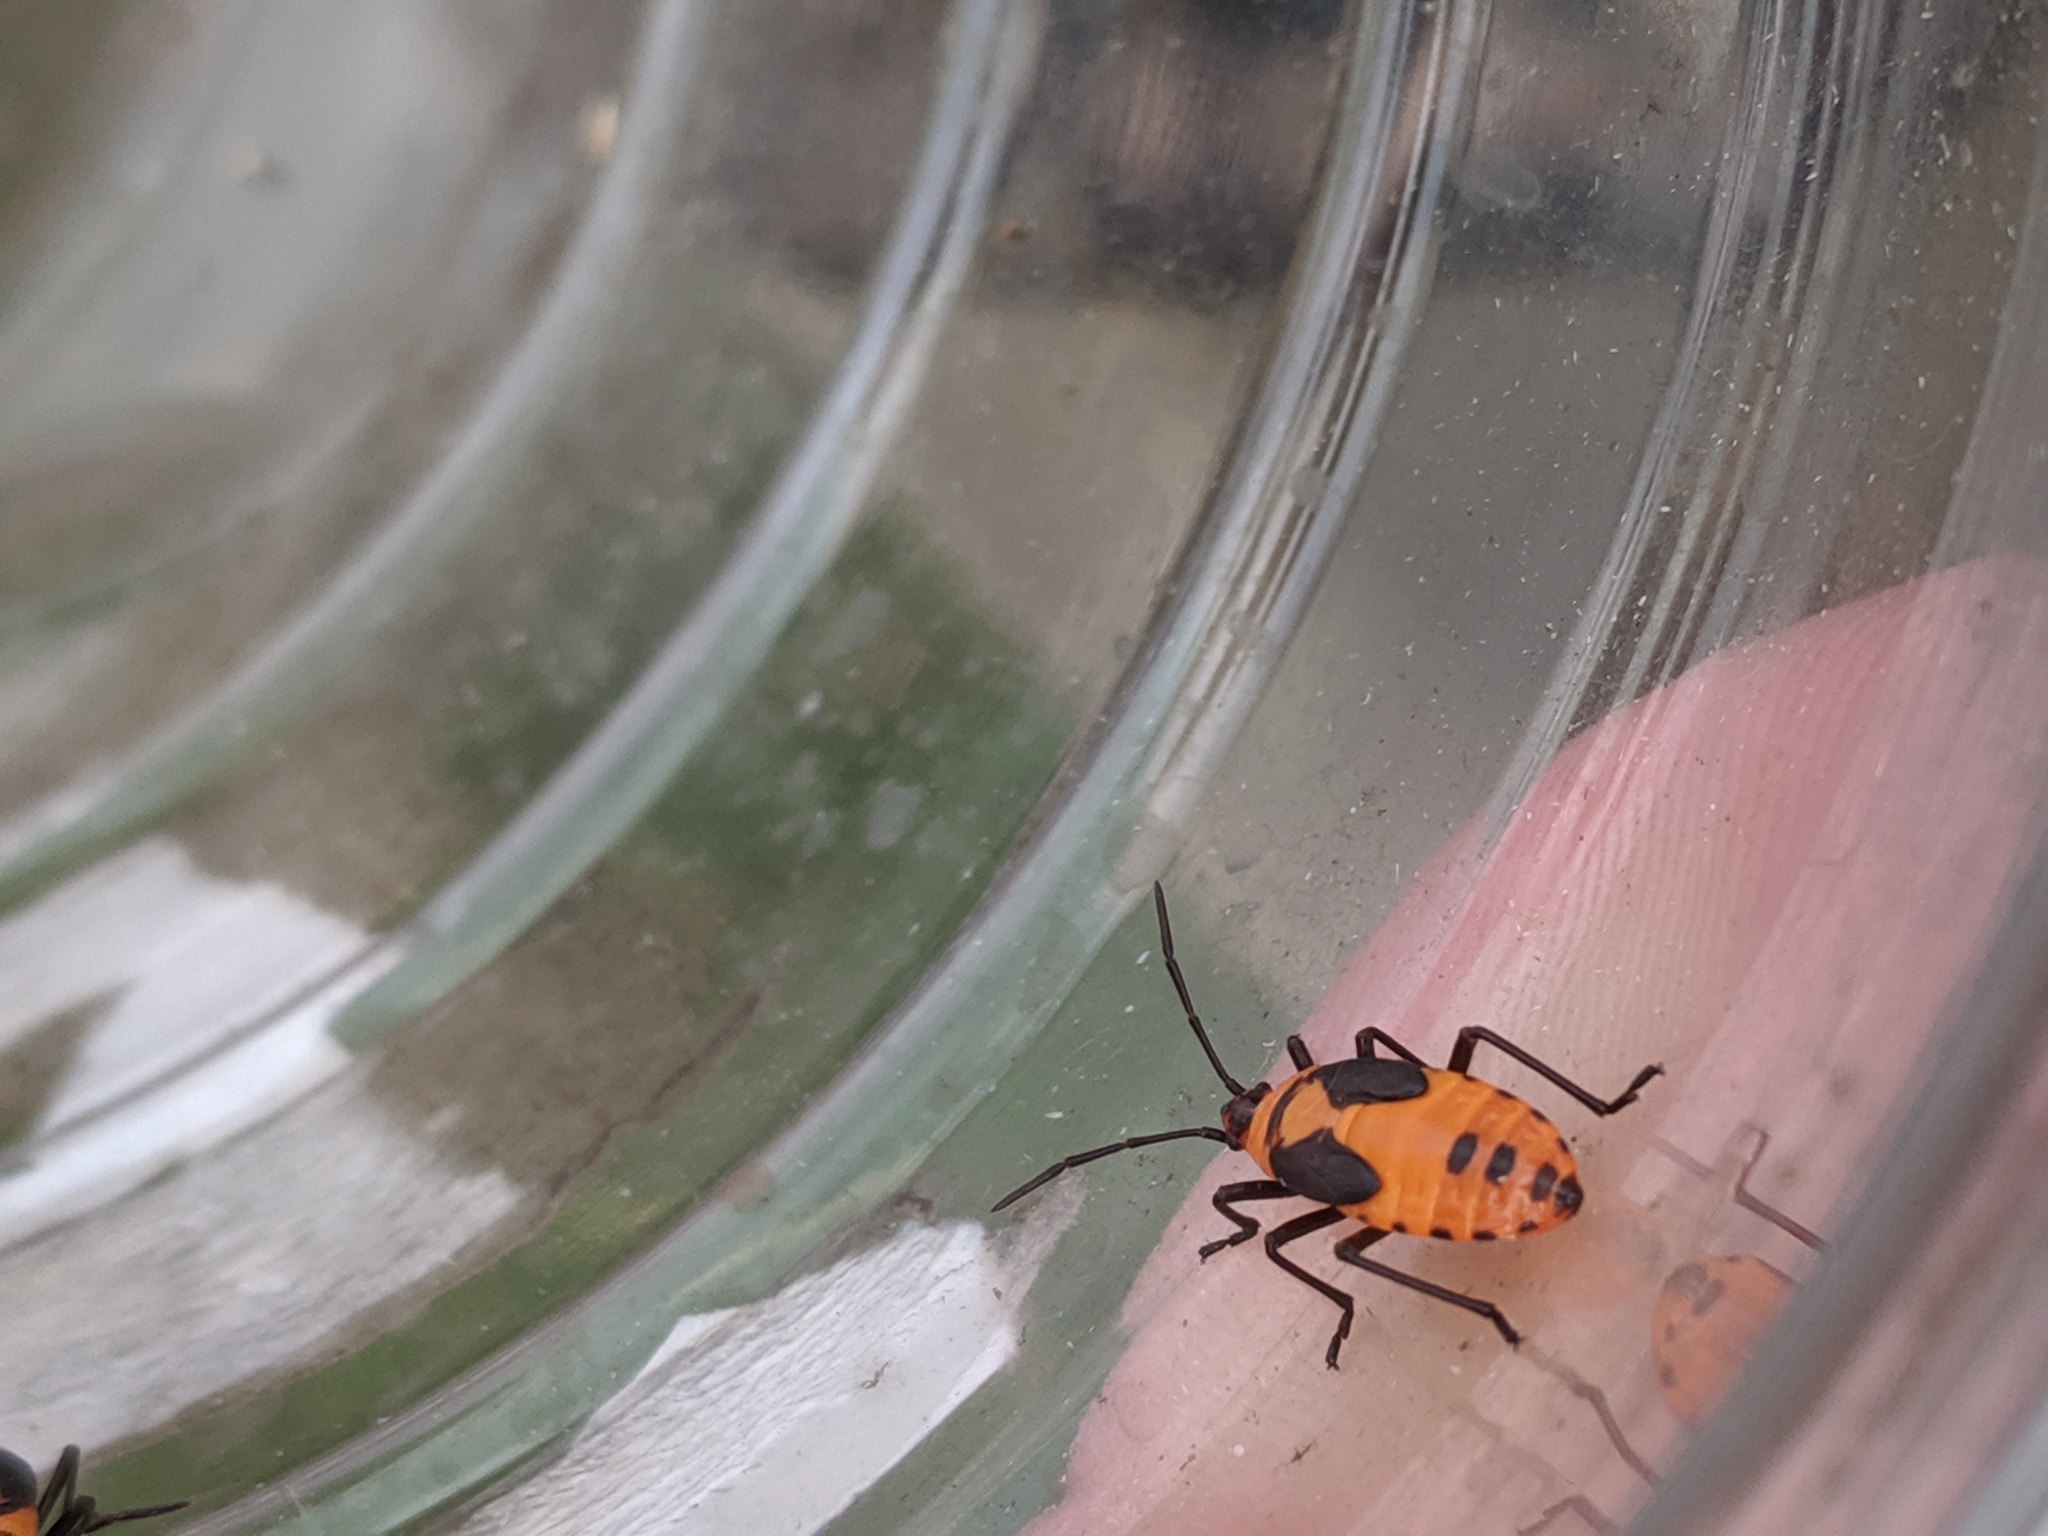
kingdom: Animalia
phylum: Arthropoda
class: Insecta
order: Hemiptera
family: Lygaeidae
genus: Oncopeltus
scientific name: Oncopeltus fasciatus
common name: Large milkweed bug
